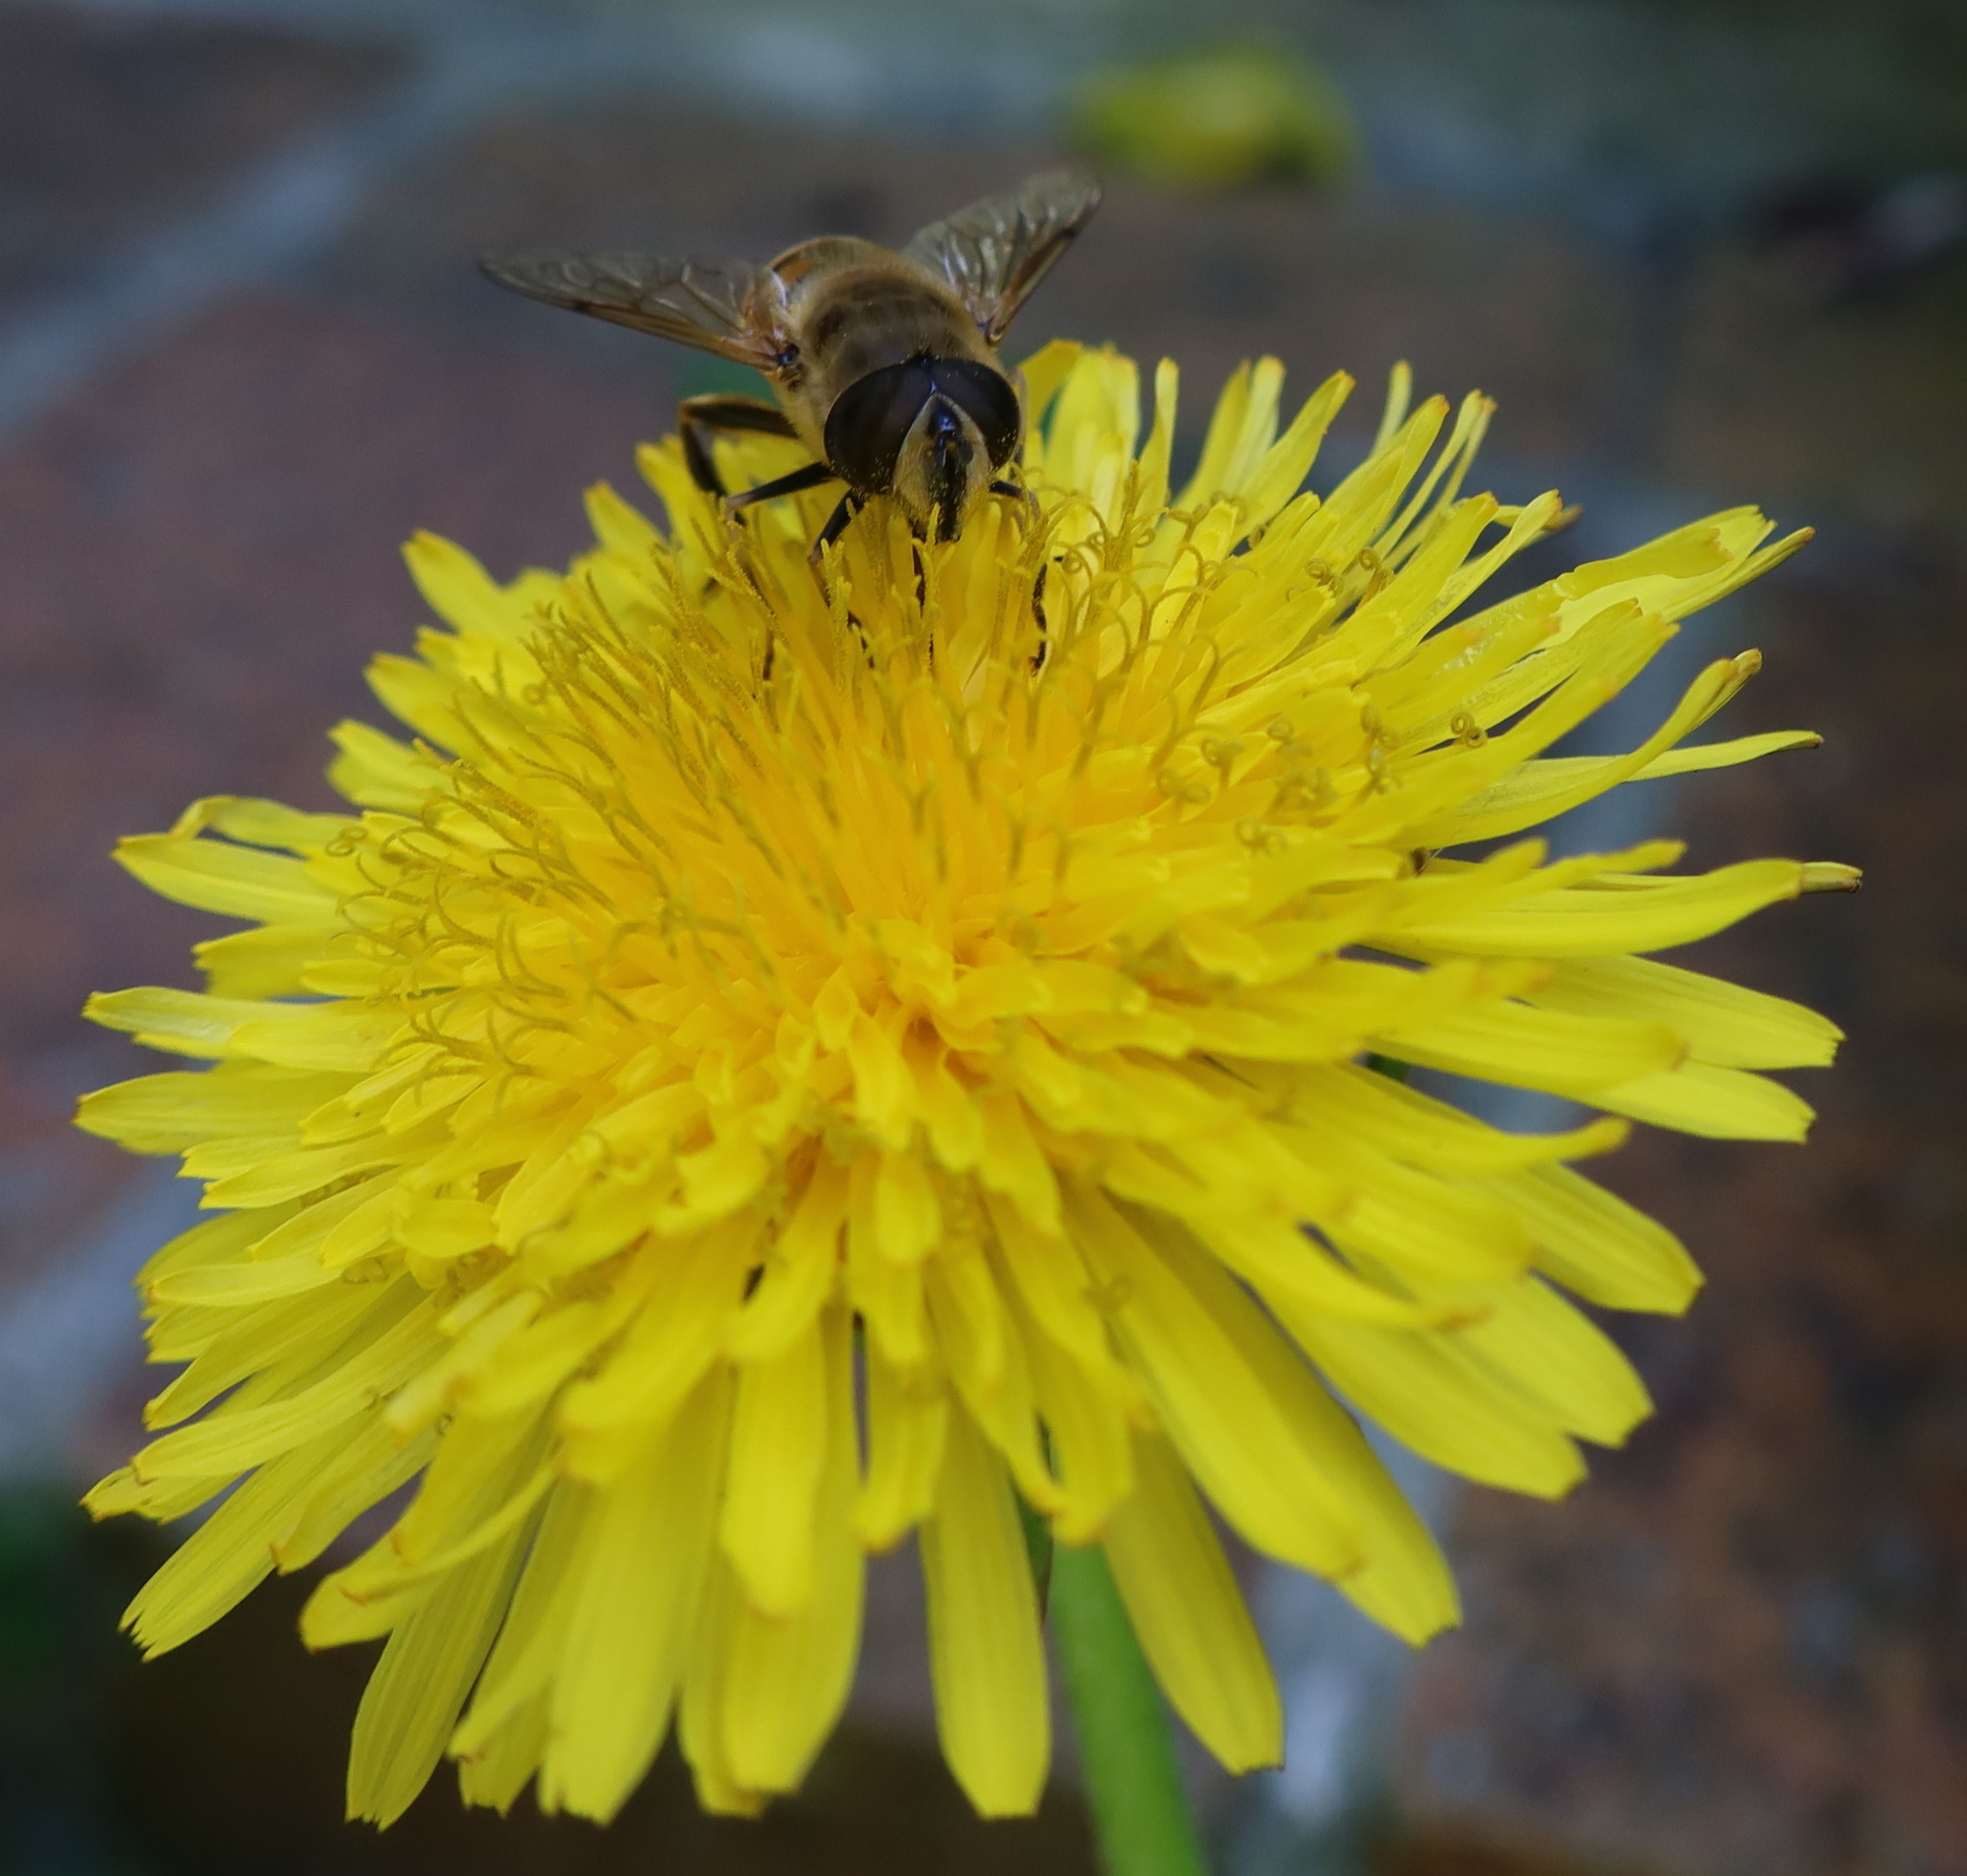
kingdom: Animalia
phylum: Arthropoda
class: Insecta
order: Diptera
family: Syrphidae
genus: Eristalis
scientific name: Eristalis tenax
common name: Drone fly
